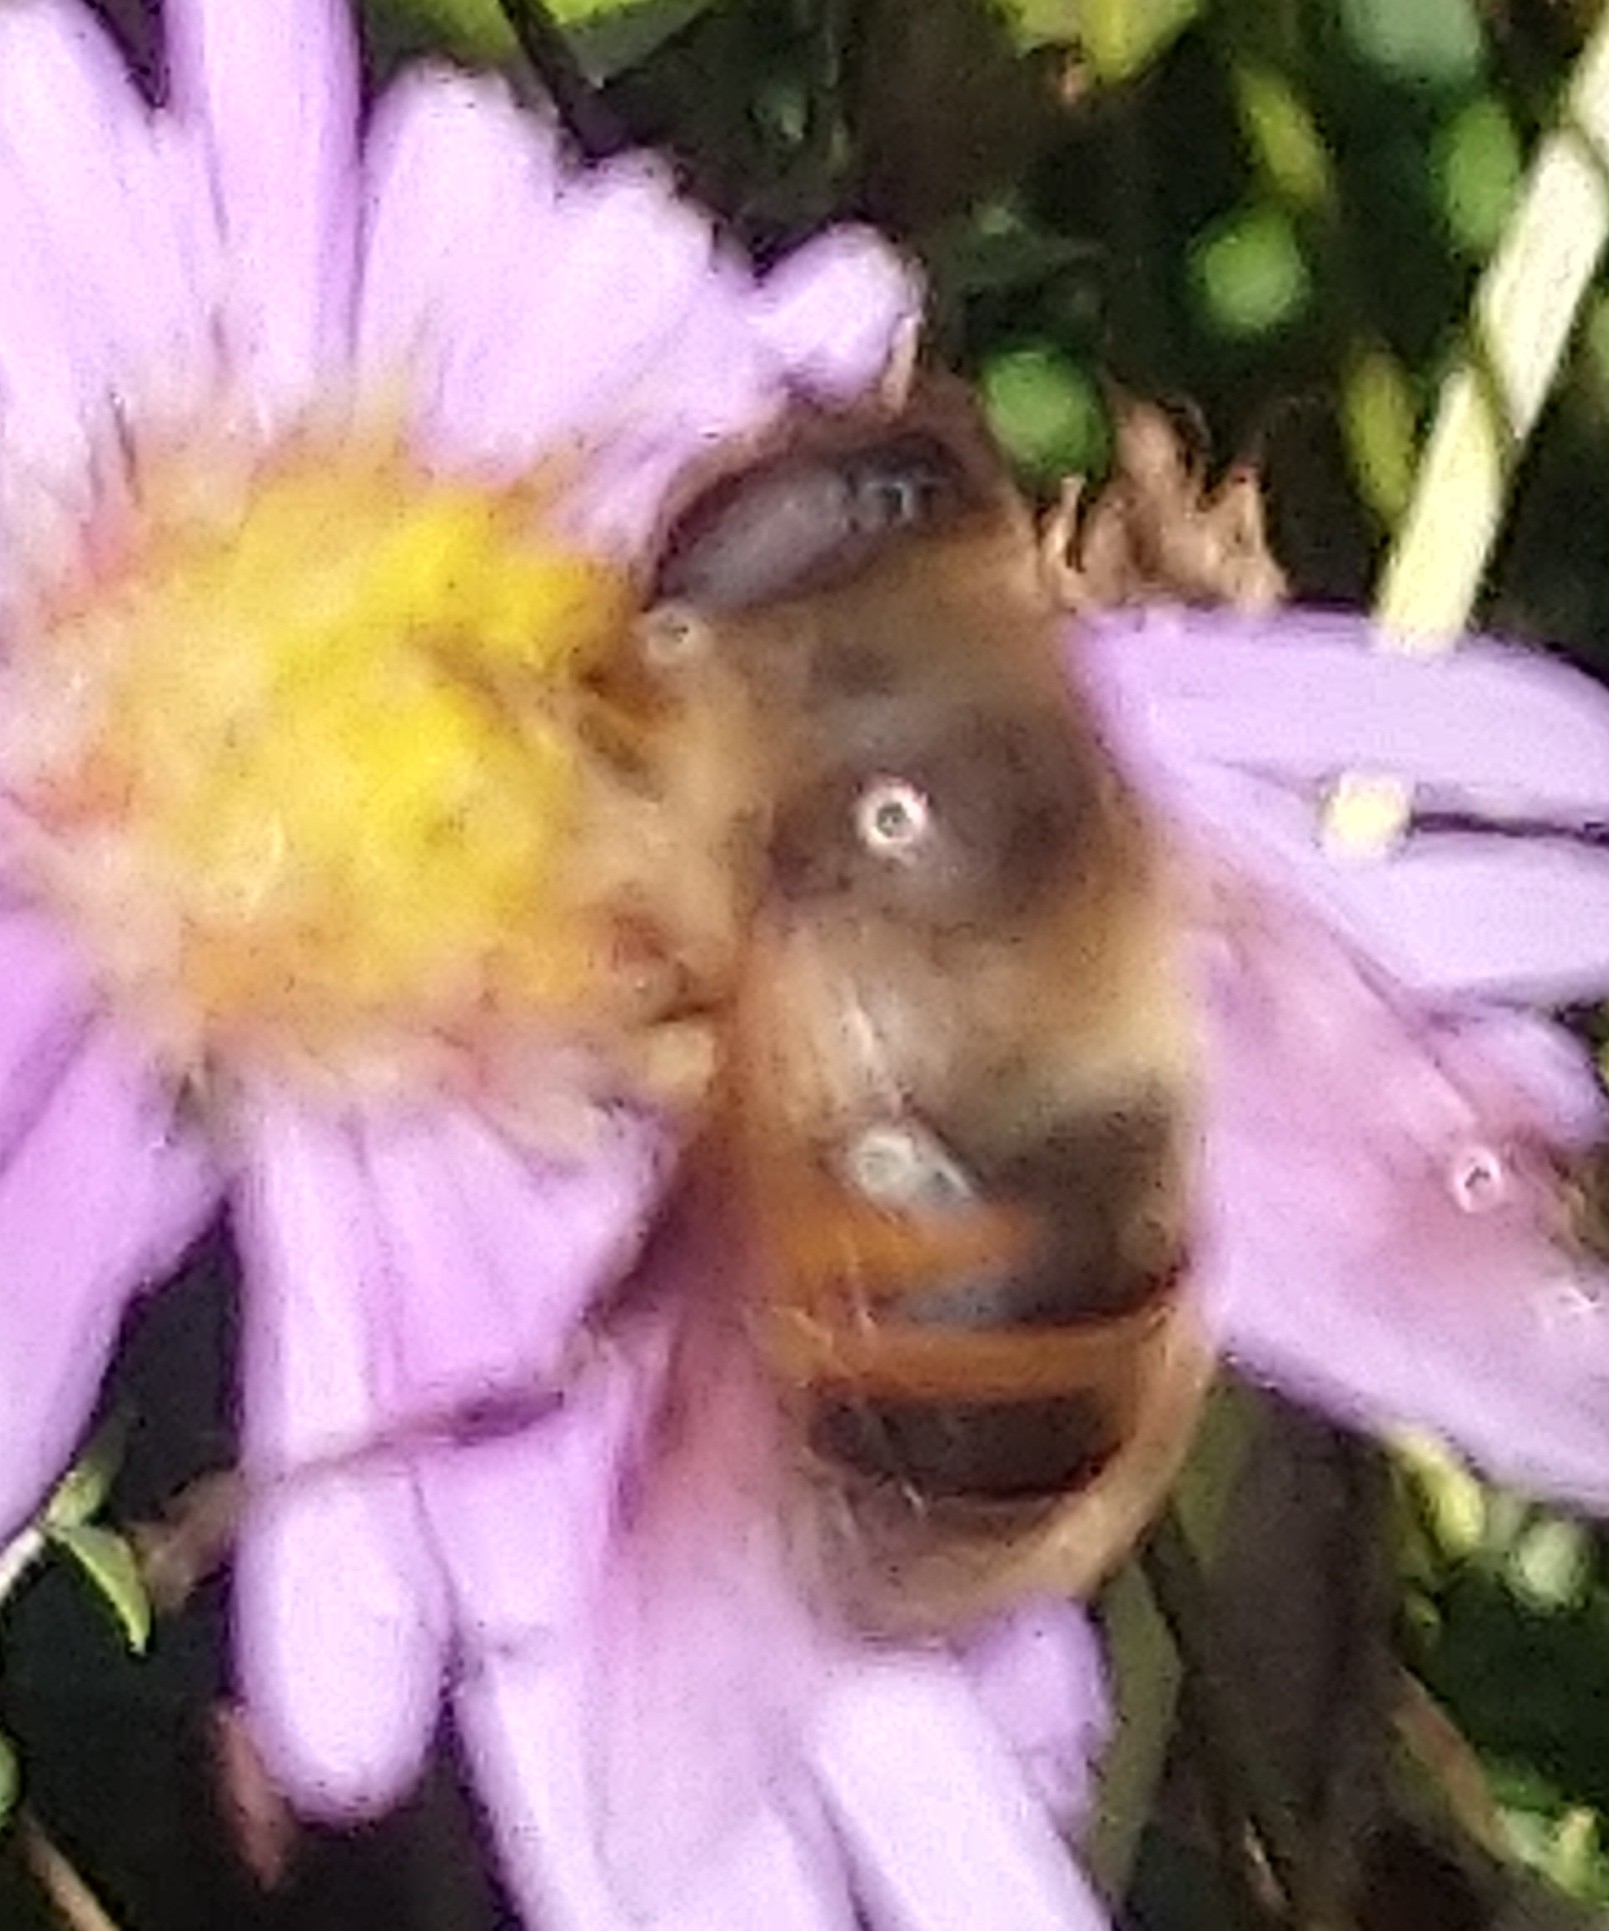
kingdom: Animalia
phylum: Arthropoda
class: Insecta
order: Diptera
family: Syrphidae
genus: Eristalis
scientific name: Eristalis tenax
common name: Drone fly
